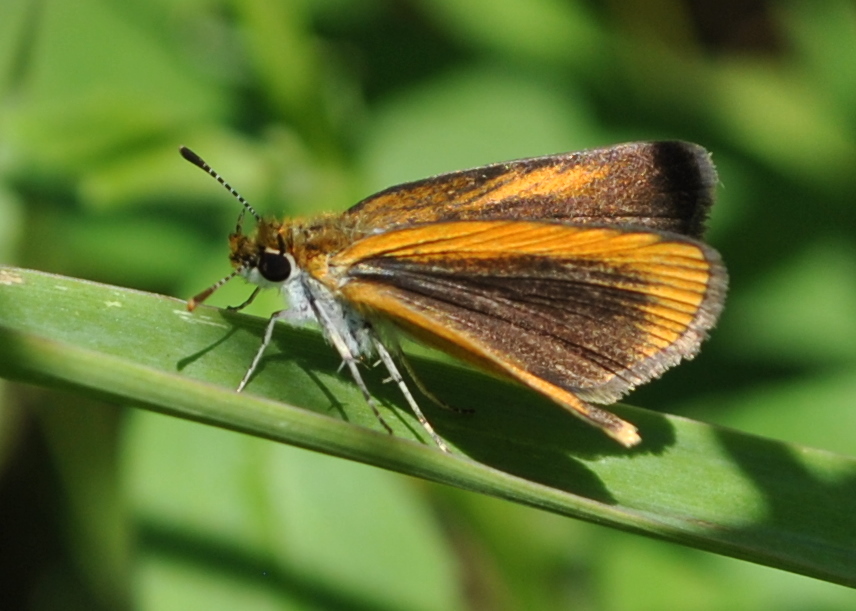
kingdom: Animalia
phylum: Arthropoda
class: Insecta
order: Lepidoptera
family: Hesperiidae
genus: Ancyloxypha
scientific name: Ancyloxypha numitor
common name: Least skipper
